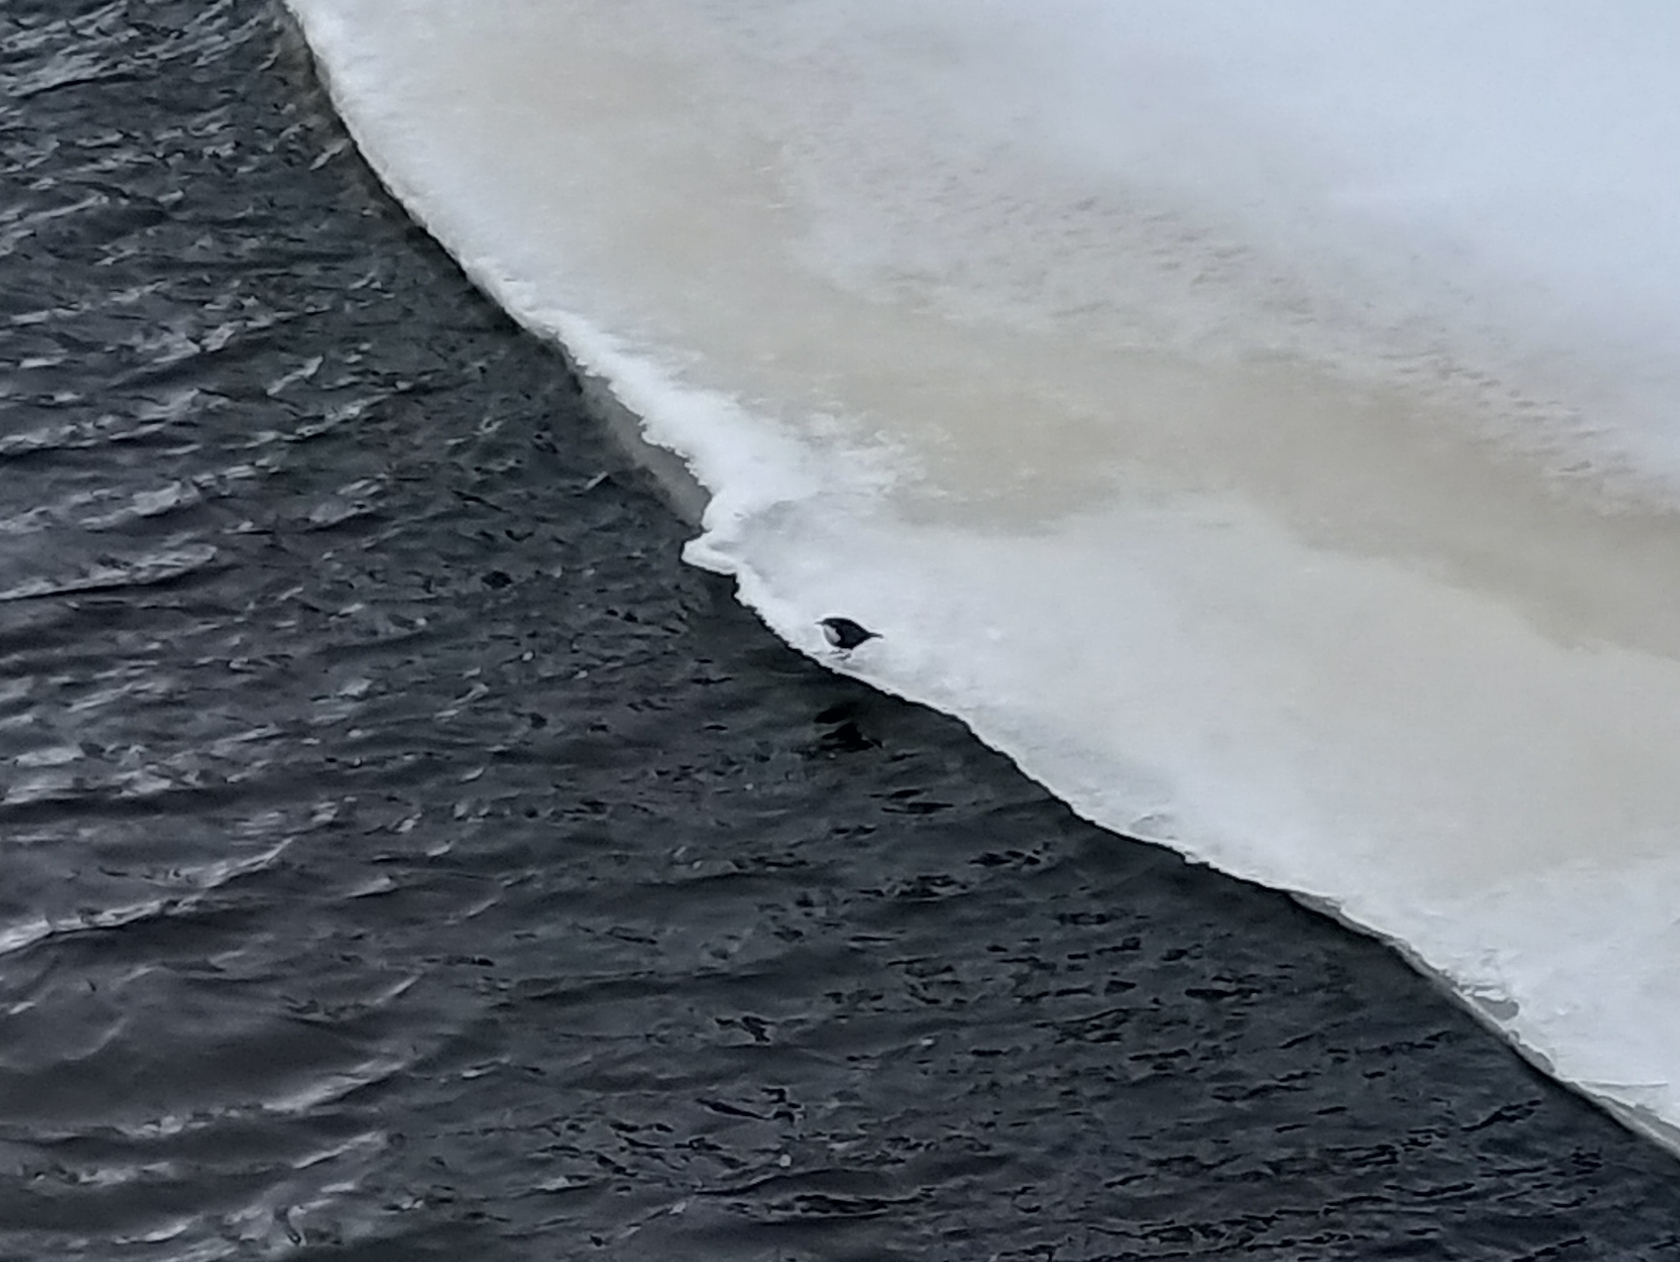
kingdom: Animalia
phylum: Chordata
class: Aves
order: Passeriformes
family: Cinclidae
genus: Cinclus
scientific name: Cinclus cinclus
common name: White-throated dipper
